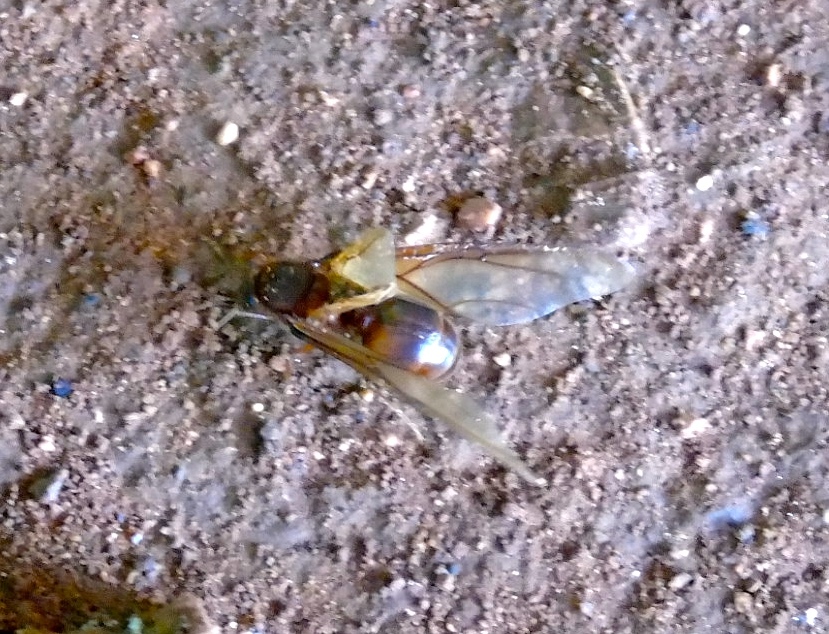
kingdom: Animalia
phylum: Arthropoda
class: Insecta
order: Hymenoptera
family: Formicidae
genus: Atta
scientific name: Atta mexicana
